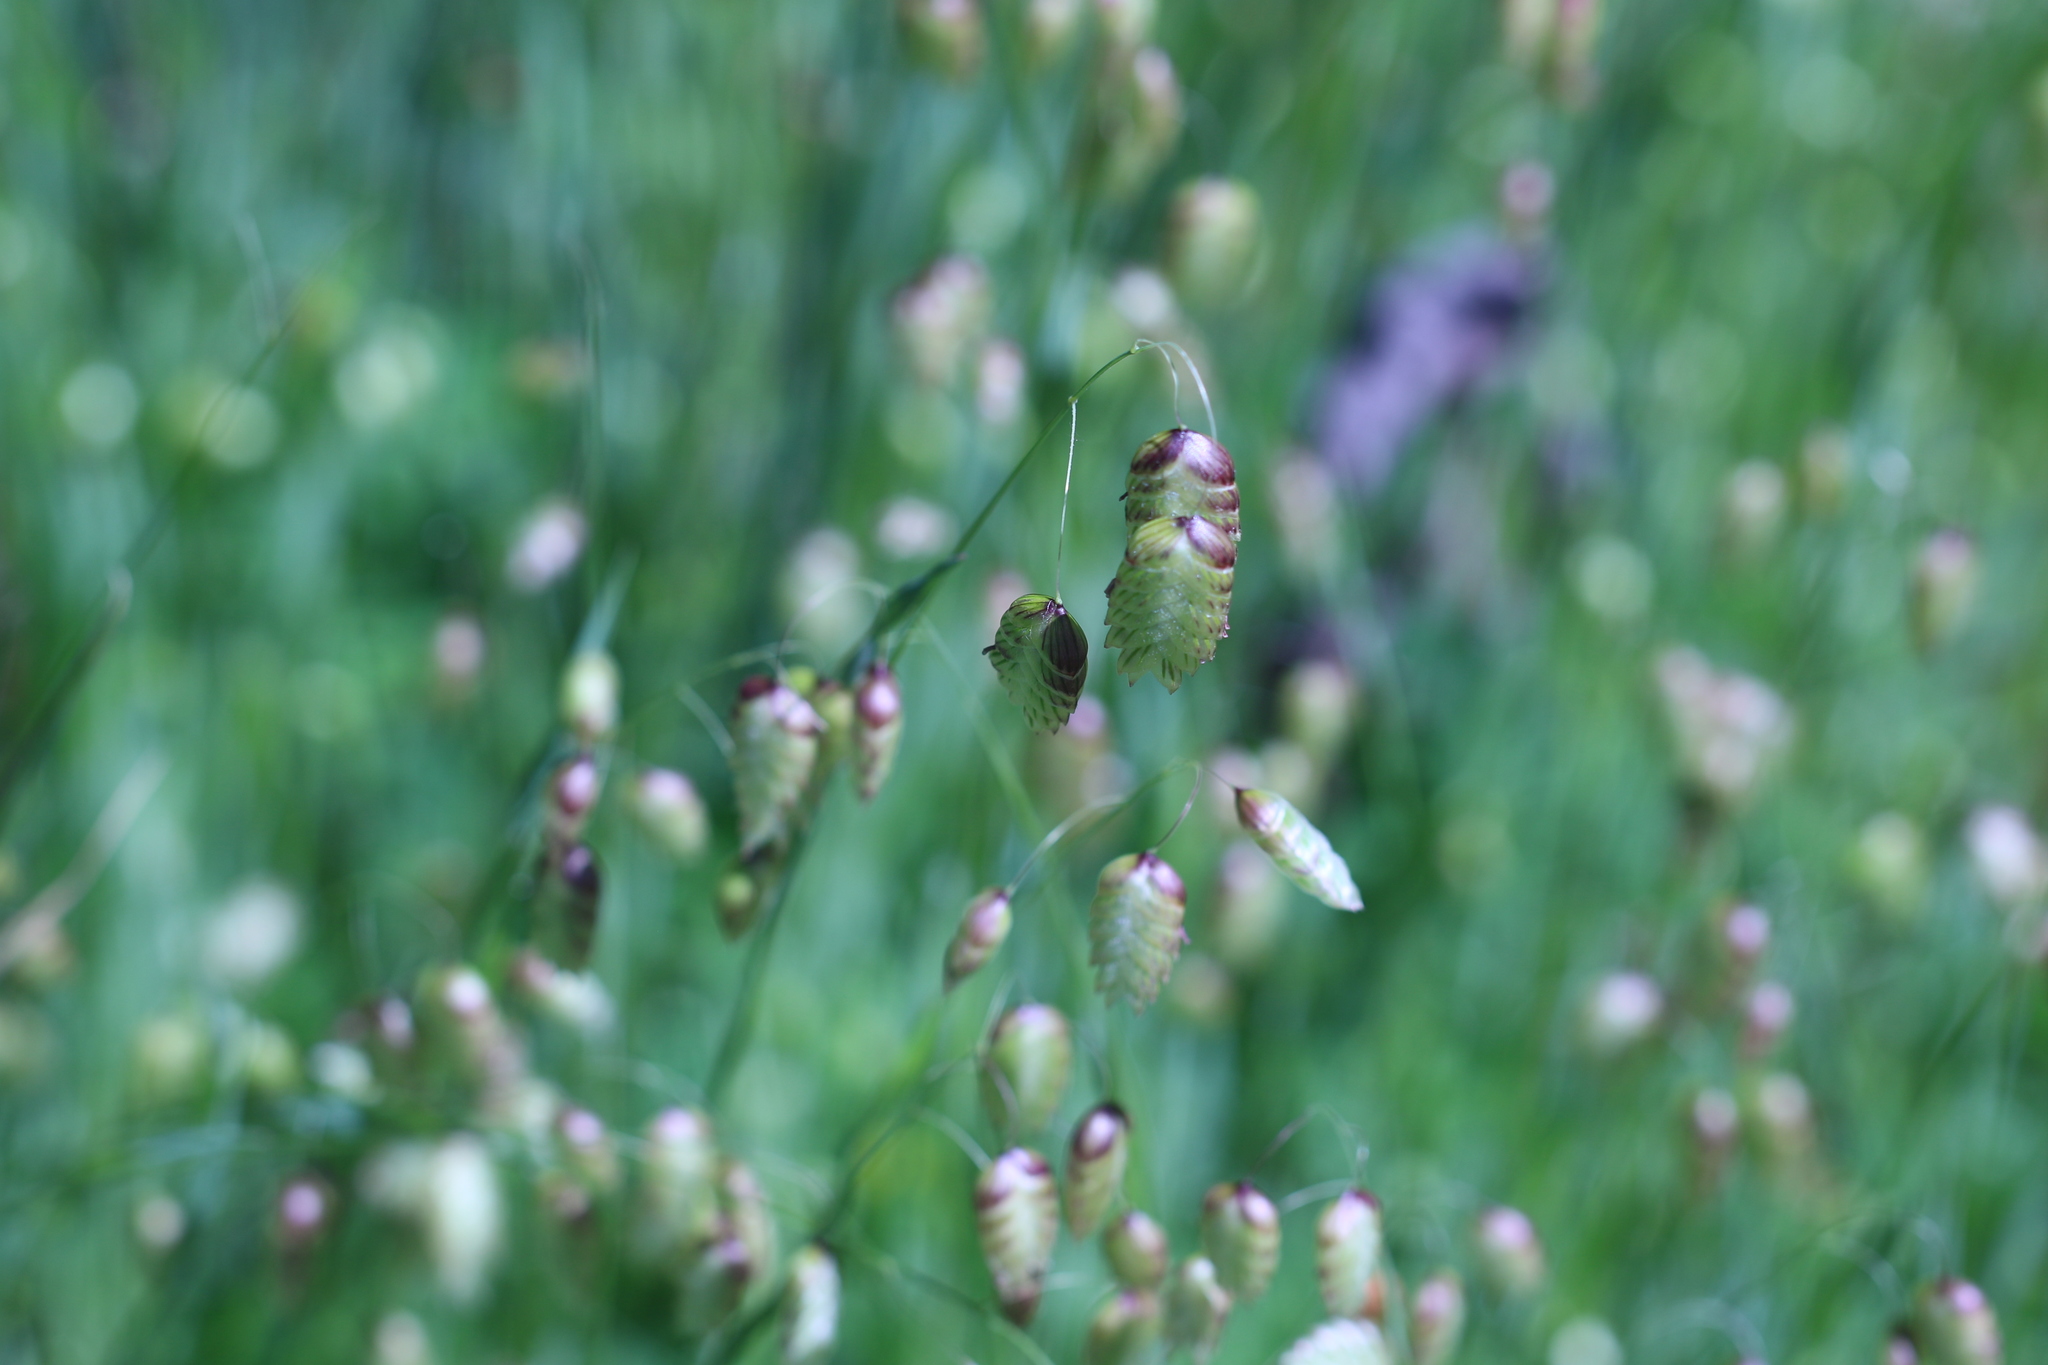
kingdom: Plantae
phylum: Tracheophyta
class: Liliopsida
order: Poales
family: Poaceae
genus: Briza
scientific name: Briza maxima
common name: Big quakinggrass
